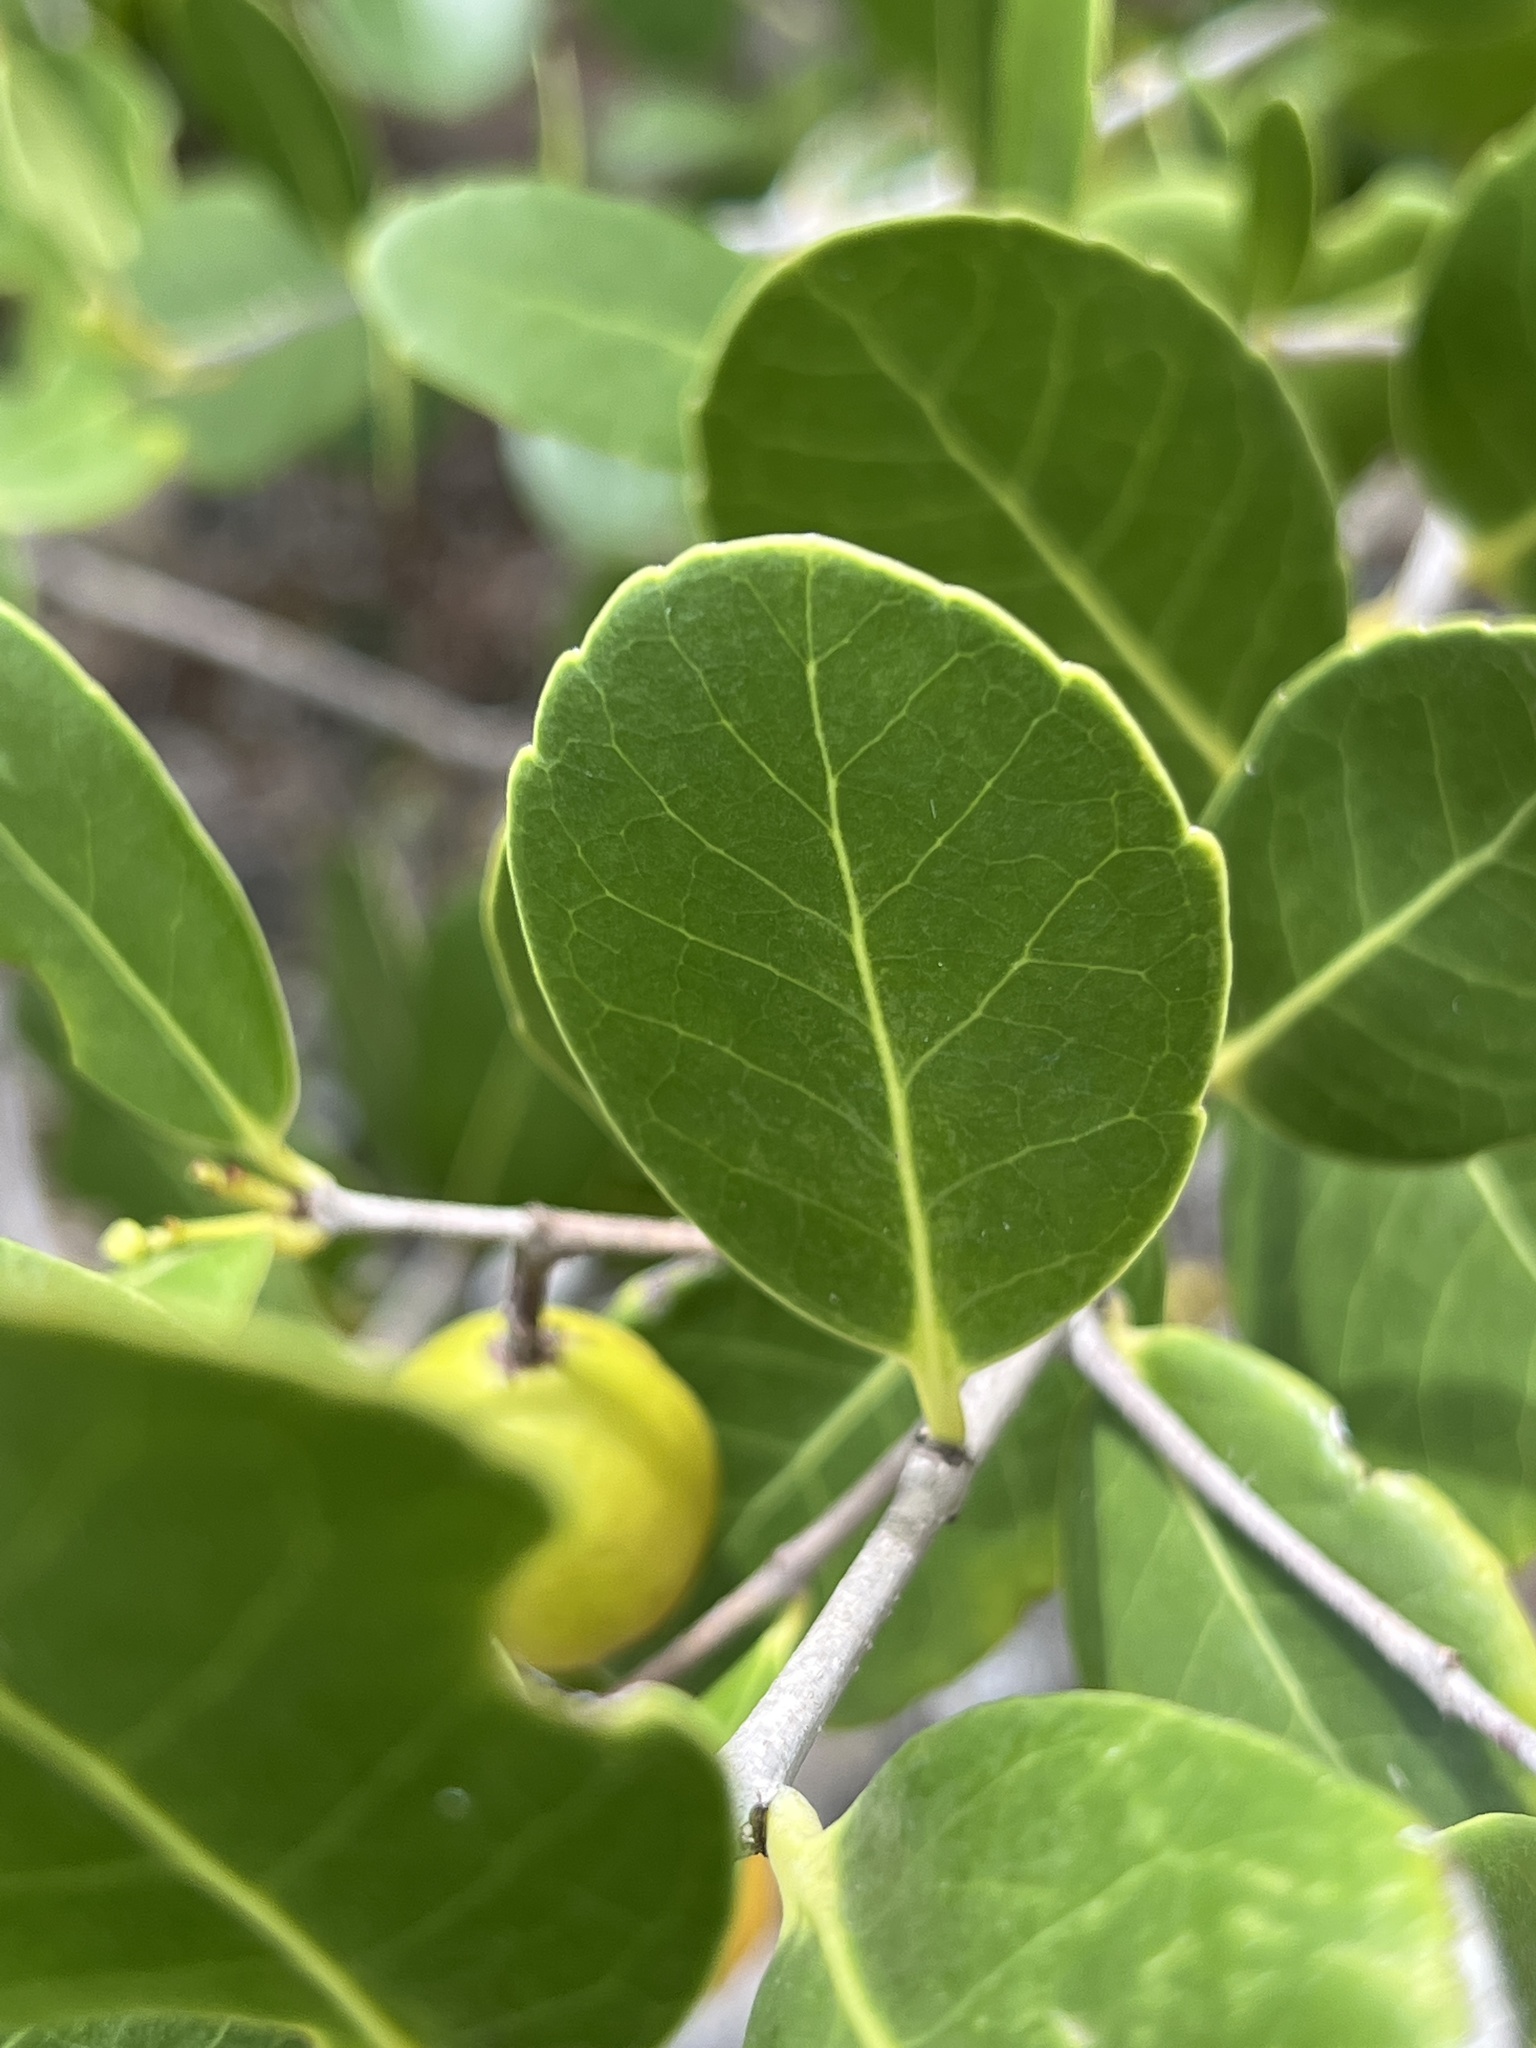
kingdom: Plantae
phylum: Tracheophyta
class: Magnoliopsida
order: Celastrales
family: Celastraceae
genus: Elaeodendron
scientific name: Elaeodendron xylocarpum
